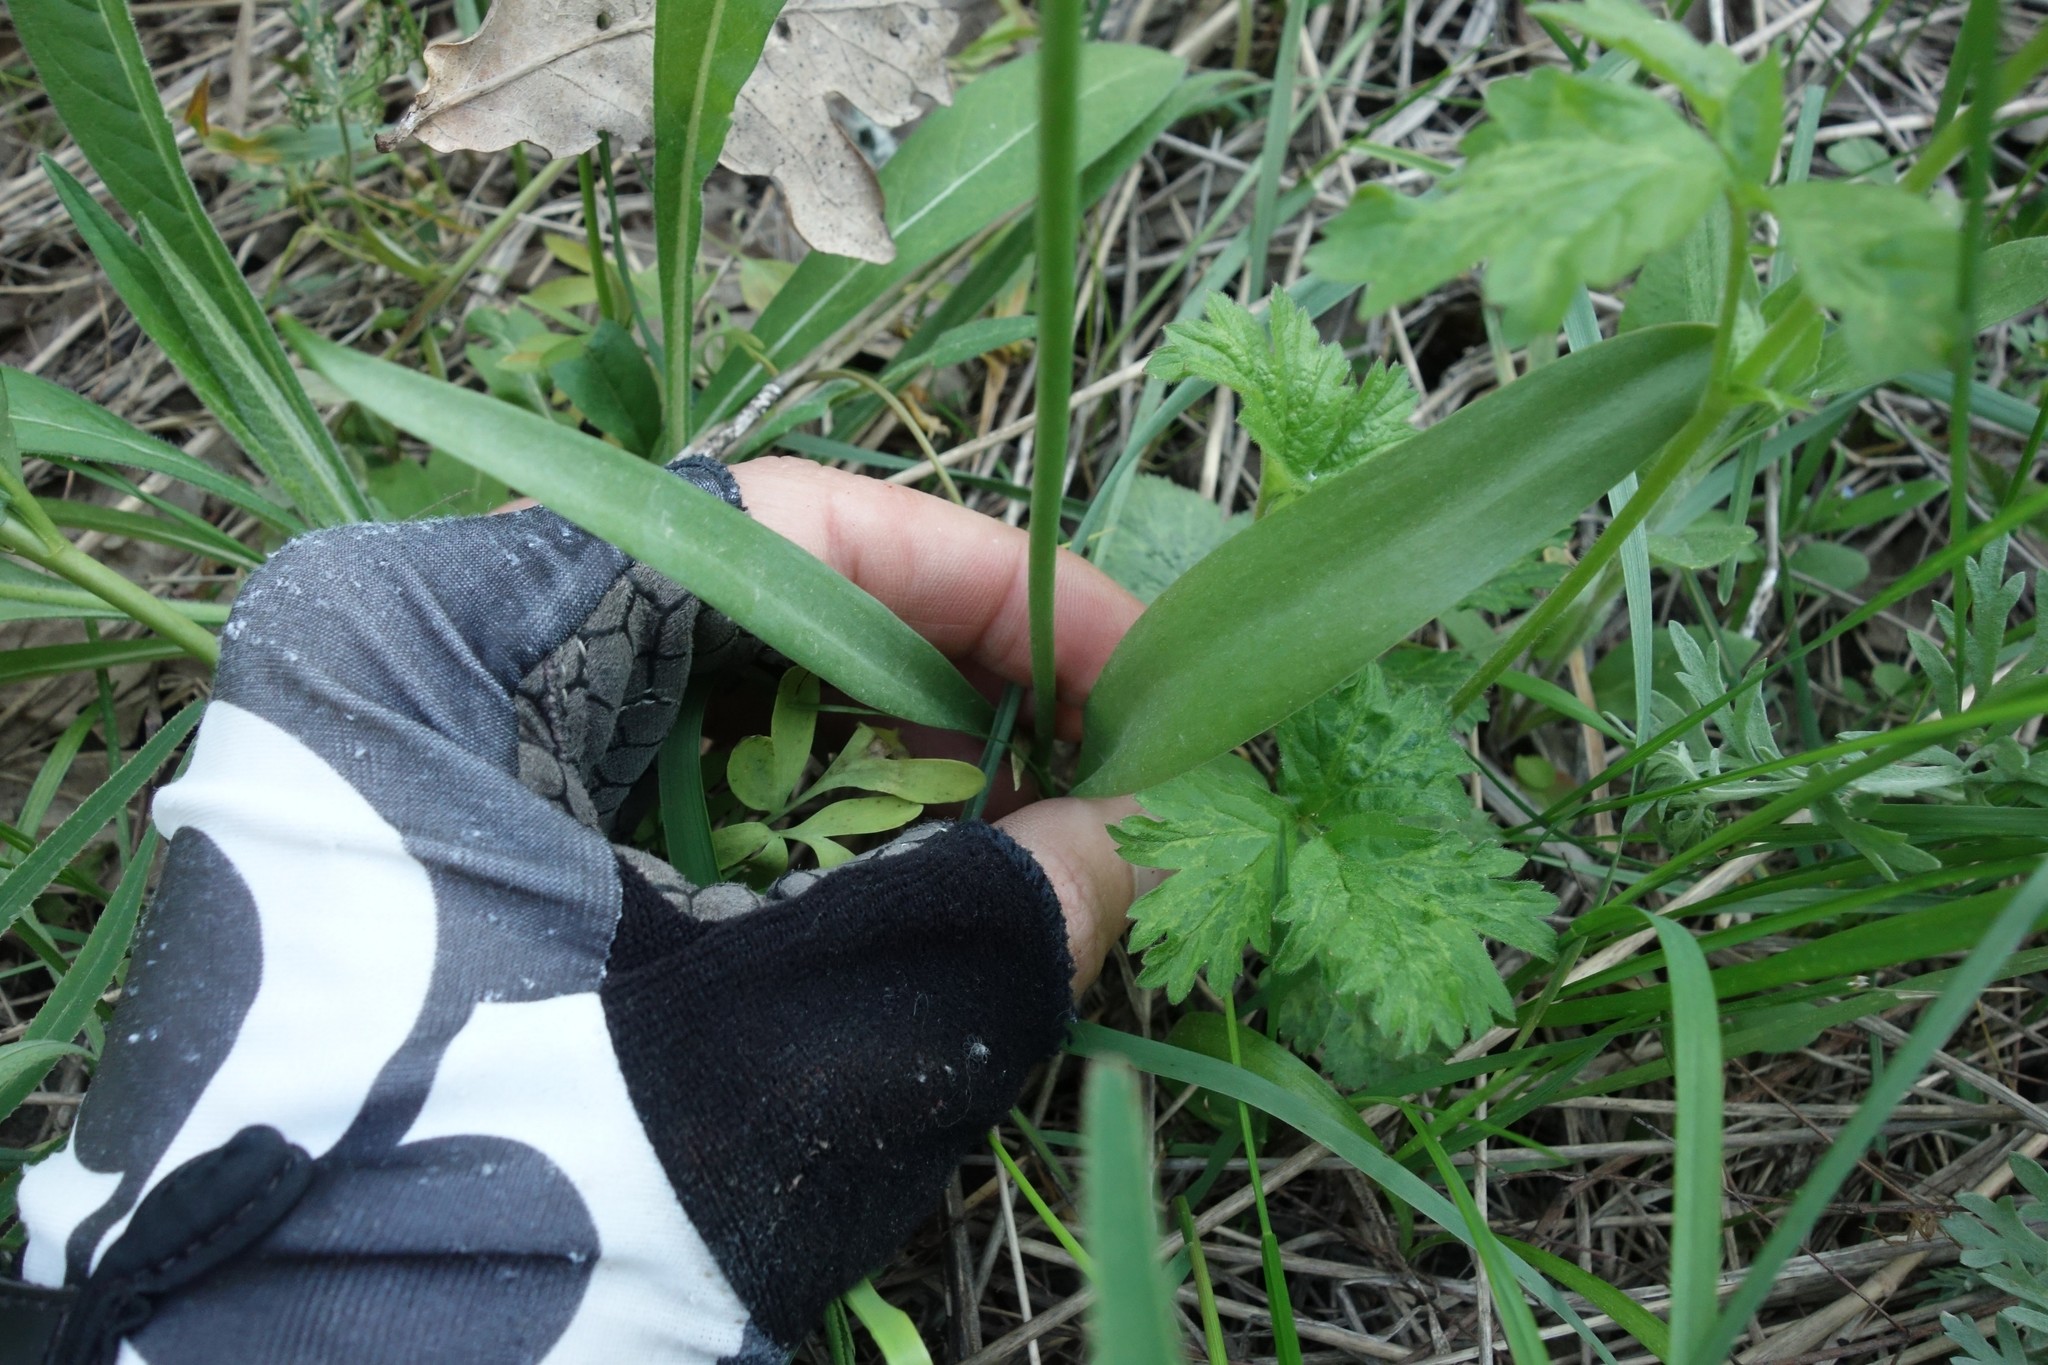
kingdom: Plantae
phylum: Tracheophyta
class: Liliopsida
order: Liliales
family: Liliaceae
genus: Tulipa
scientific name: Tulipa sylvestris
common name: Wild tulip
